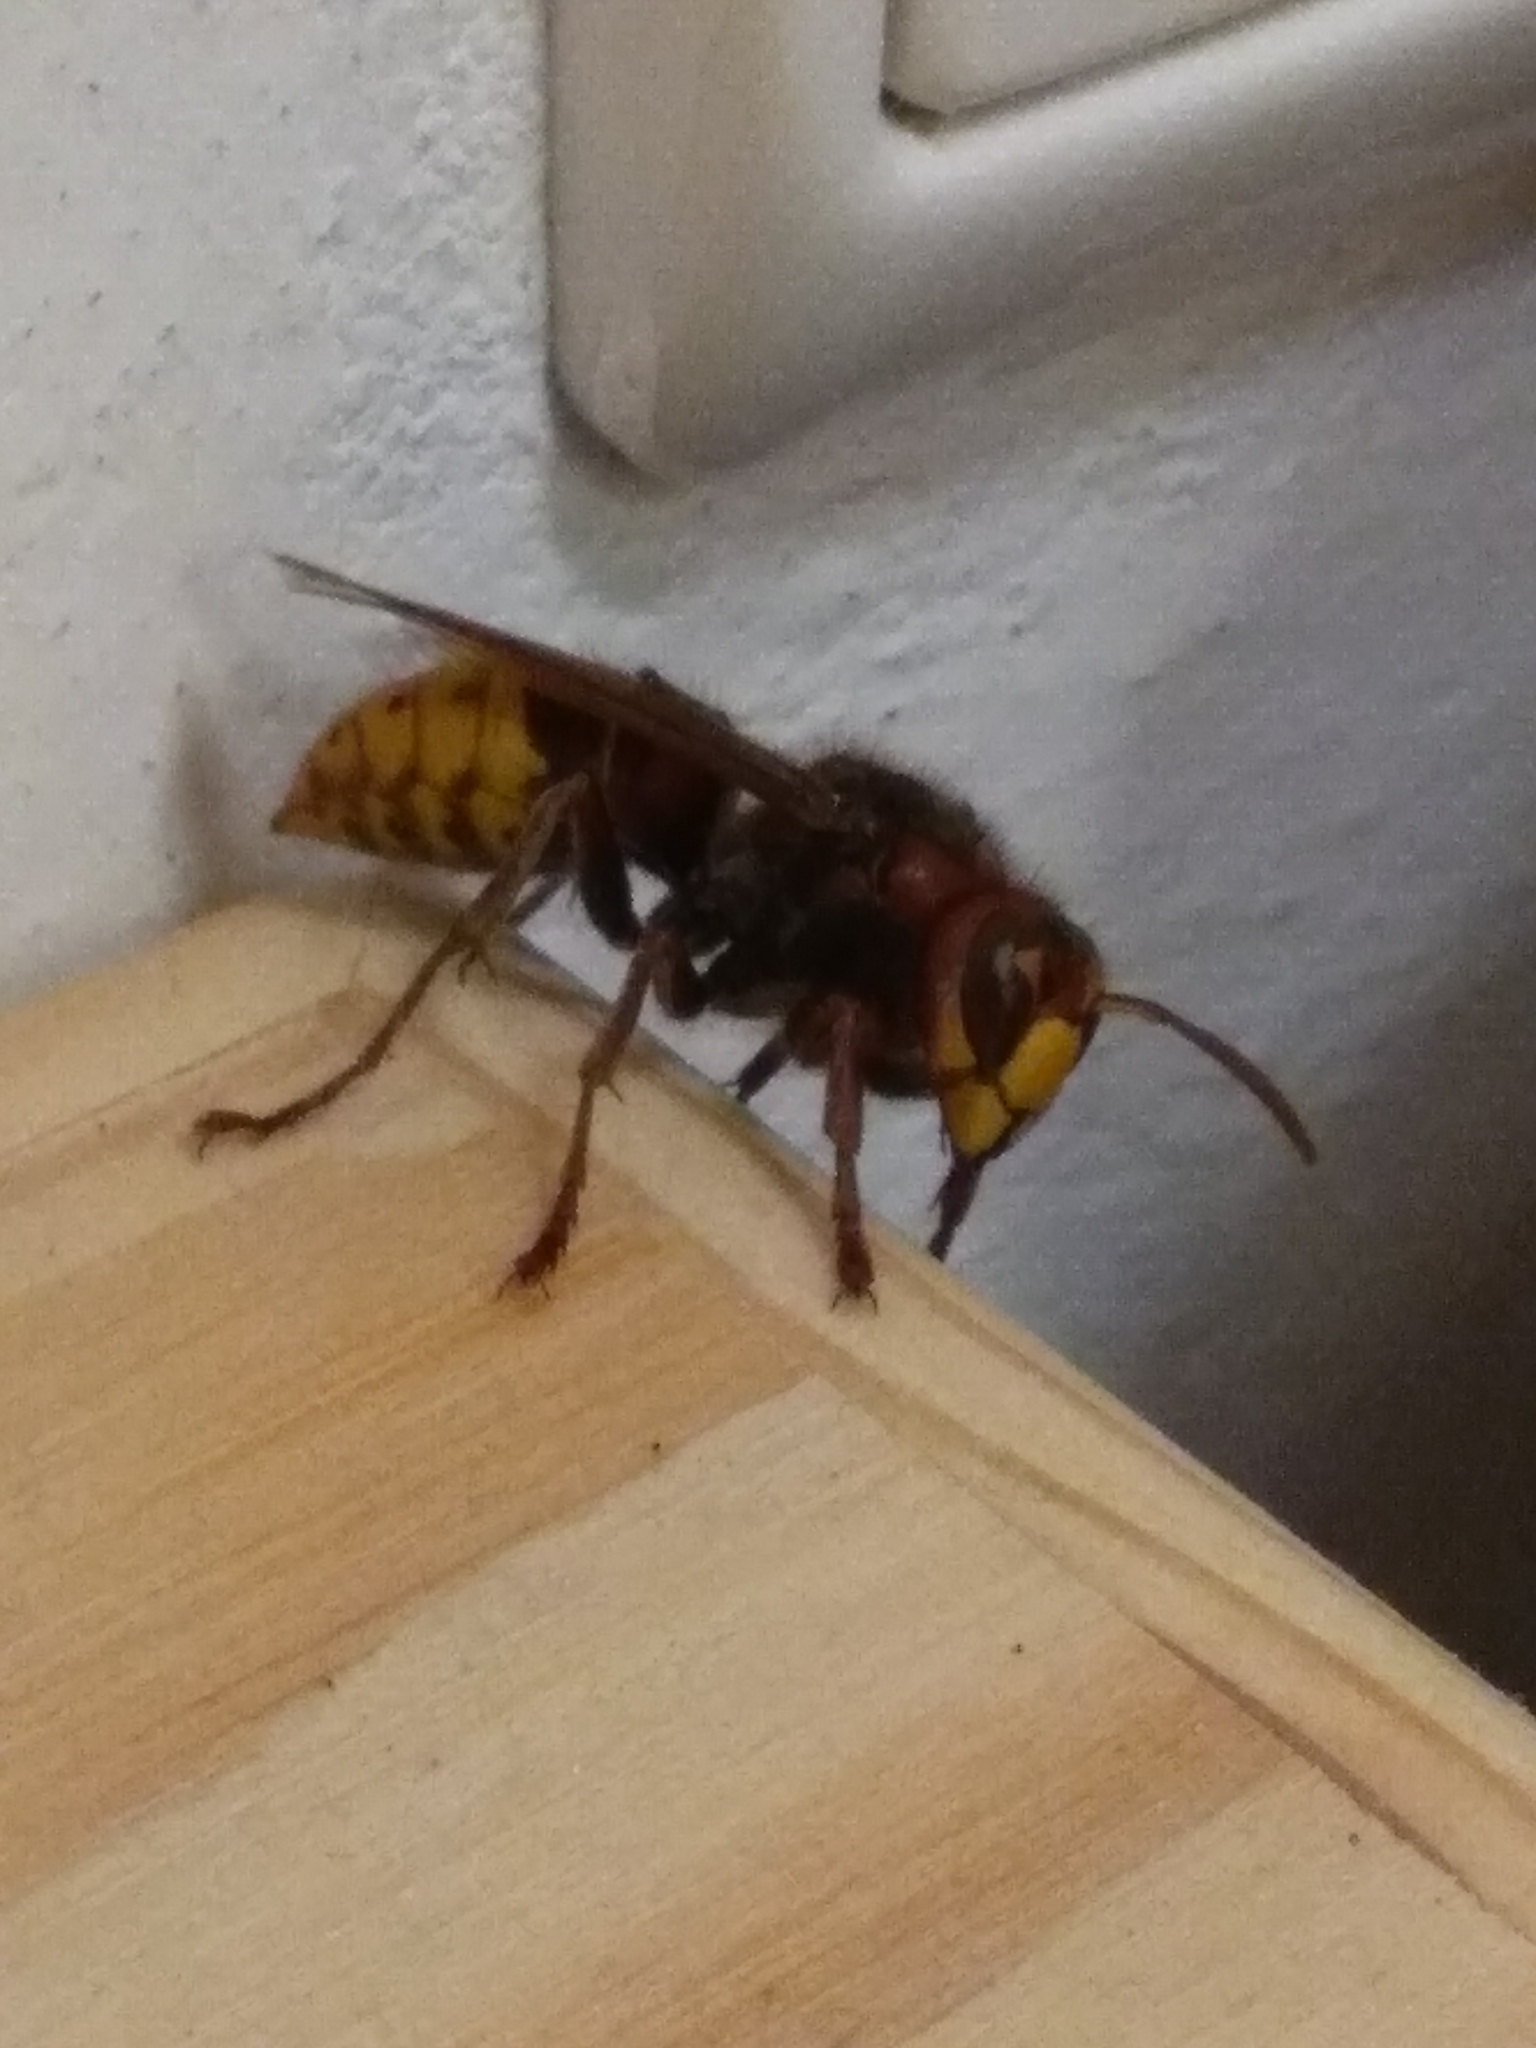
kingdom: Animalia
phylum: Arthropoda
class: Insecta
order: Hymenoptera
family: Vespidae
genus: Vespa
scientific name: Vespa crabro
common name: Hornet
